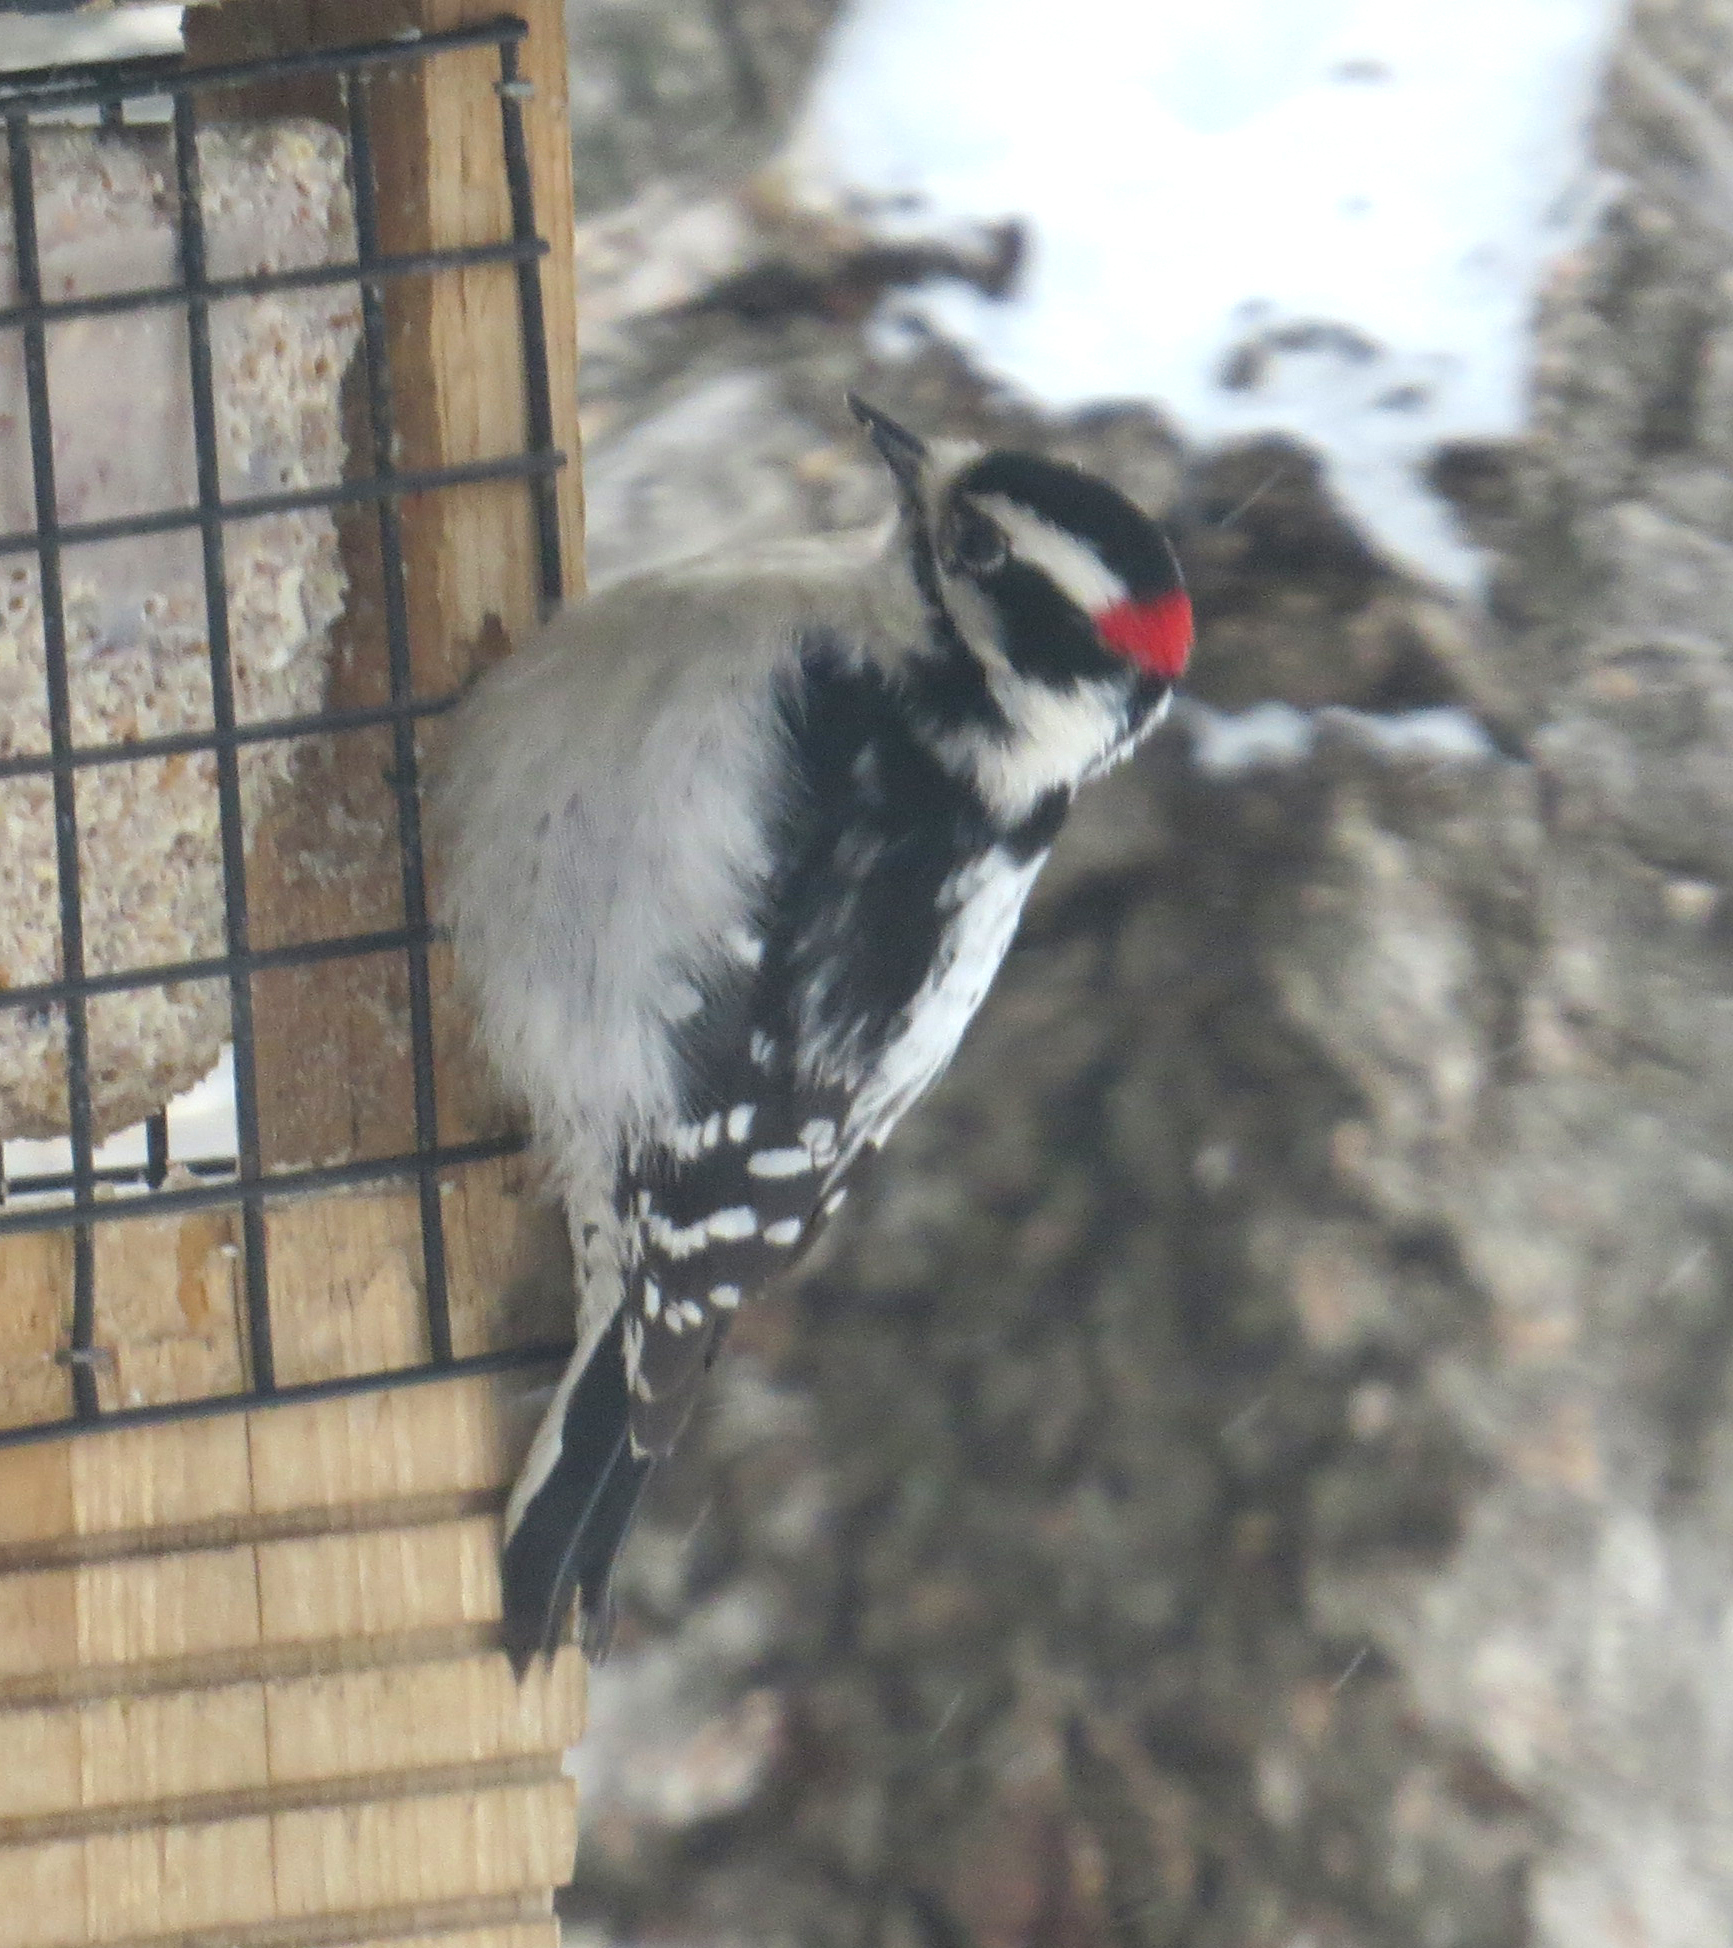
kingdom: Animalia
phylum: Chordata
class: Aves
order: Piciformes
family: Picidae
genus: Dryobates
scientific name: Dryobates pubescens
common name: Downy woodpecker
